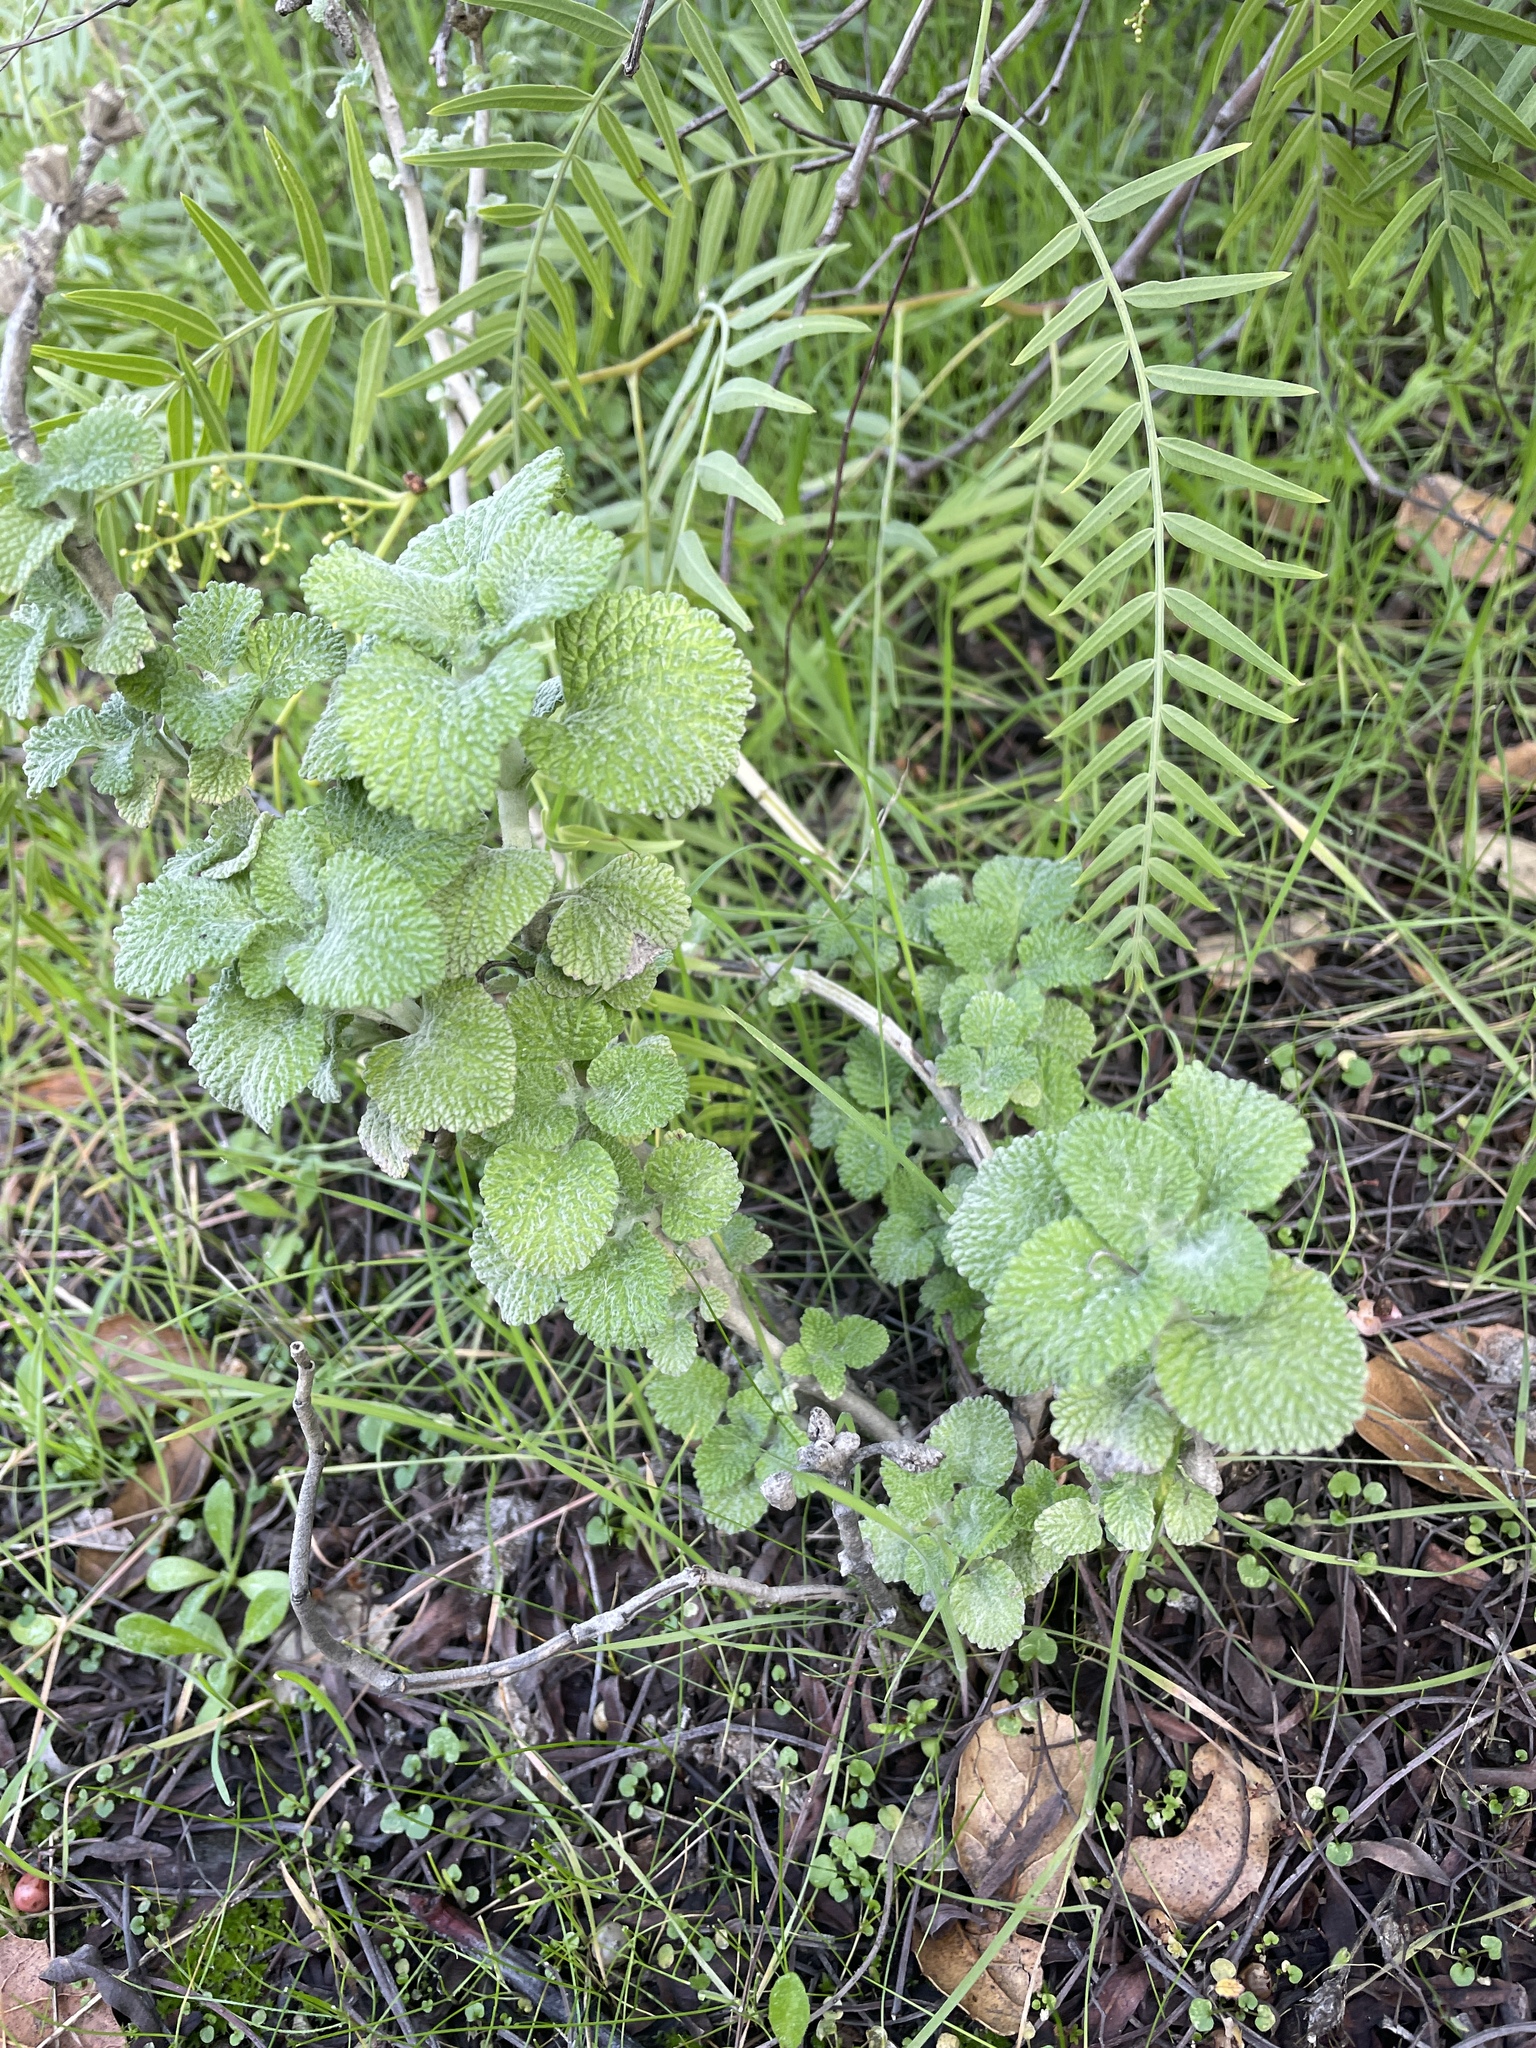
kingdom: Plantae
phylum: Tracheophyta
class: Magnoliopsida
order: Lamiales
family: Lamiaceae
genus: Marrubium
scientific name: Marrubium vulgare
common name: Horehound
